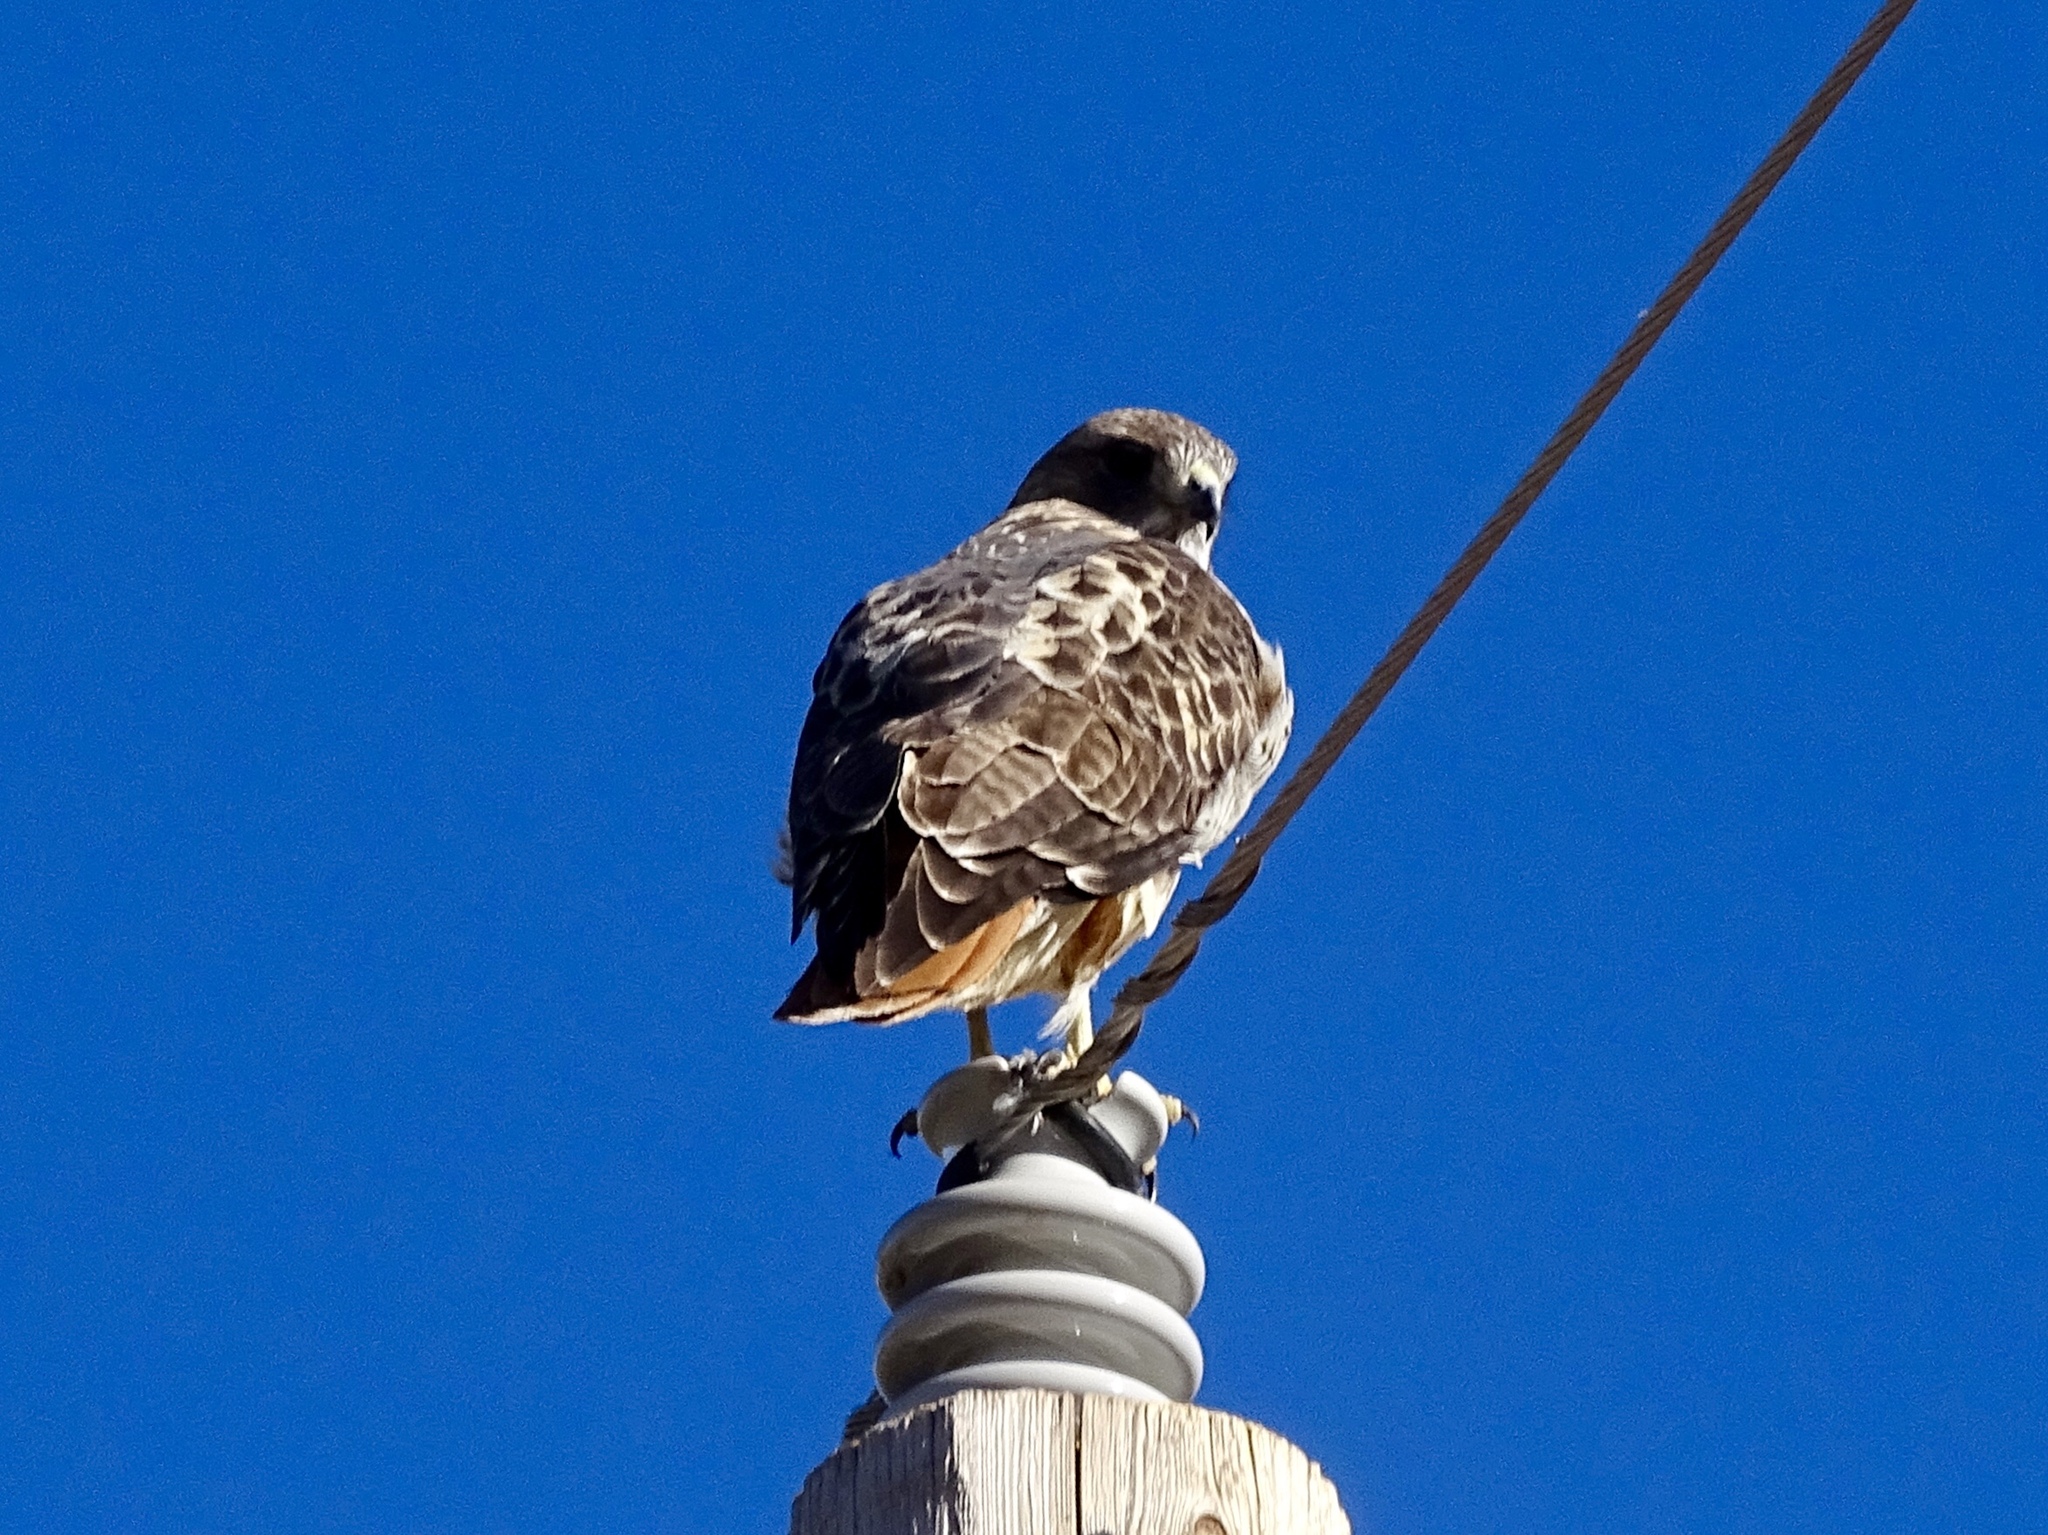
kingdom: Animalia
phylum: Chordata
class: Aves
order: Accipitriformes
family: Accipitridae
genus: Buteo
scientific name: Buteo jamaicensis
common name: Red-tailed hawk
